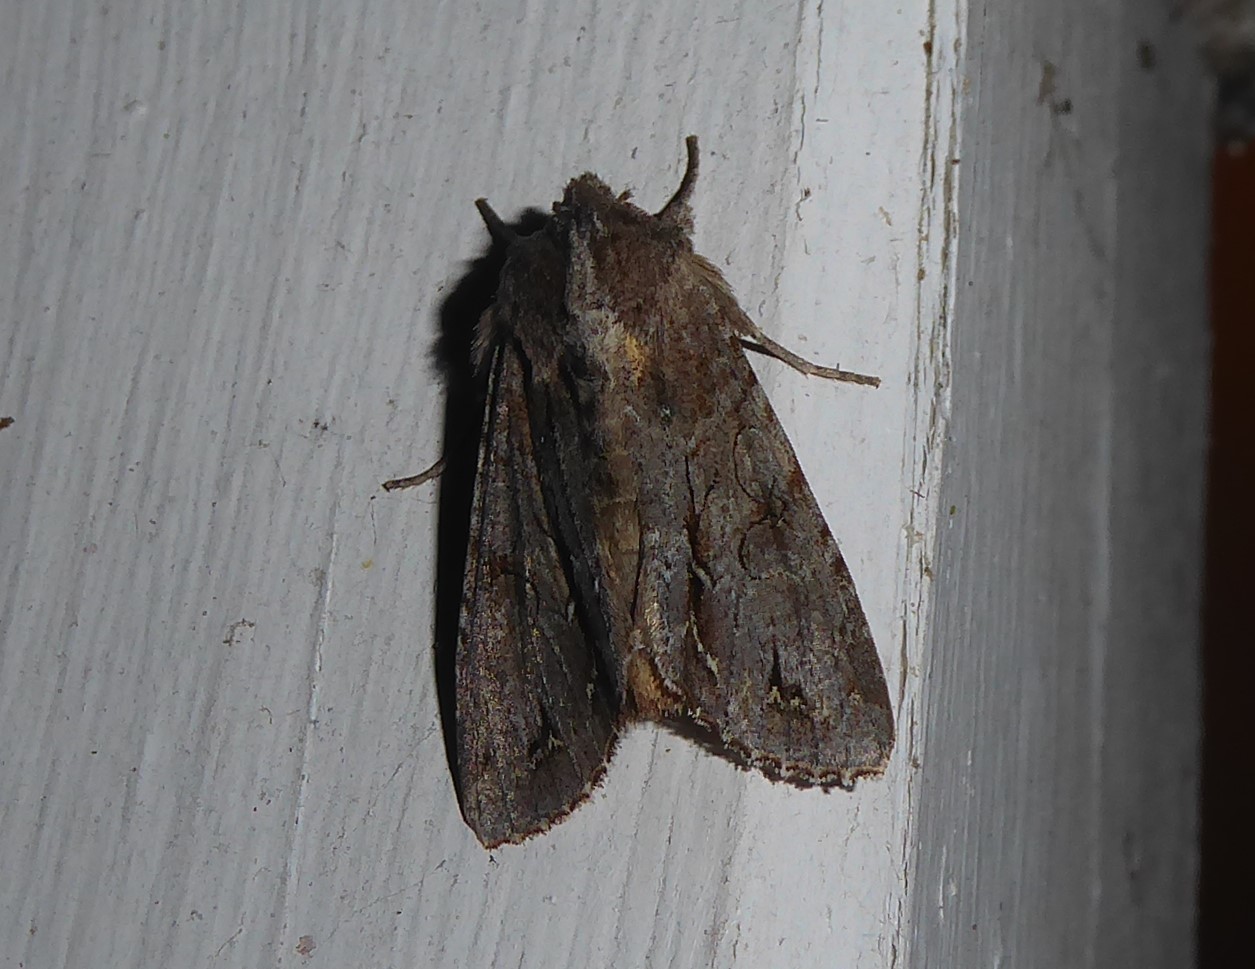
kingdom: Animalia
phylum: Arthropoda
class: Insecta
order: Lepidoptera
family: Noctuidae
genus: Ichneutica
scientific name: Ichneutica
